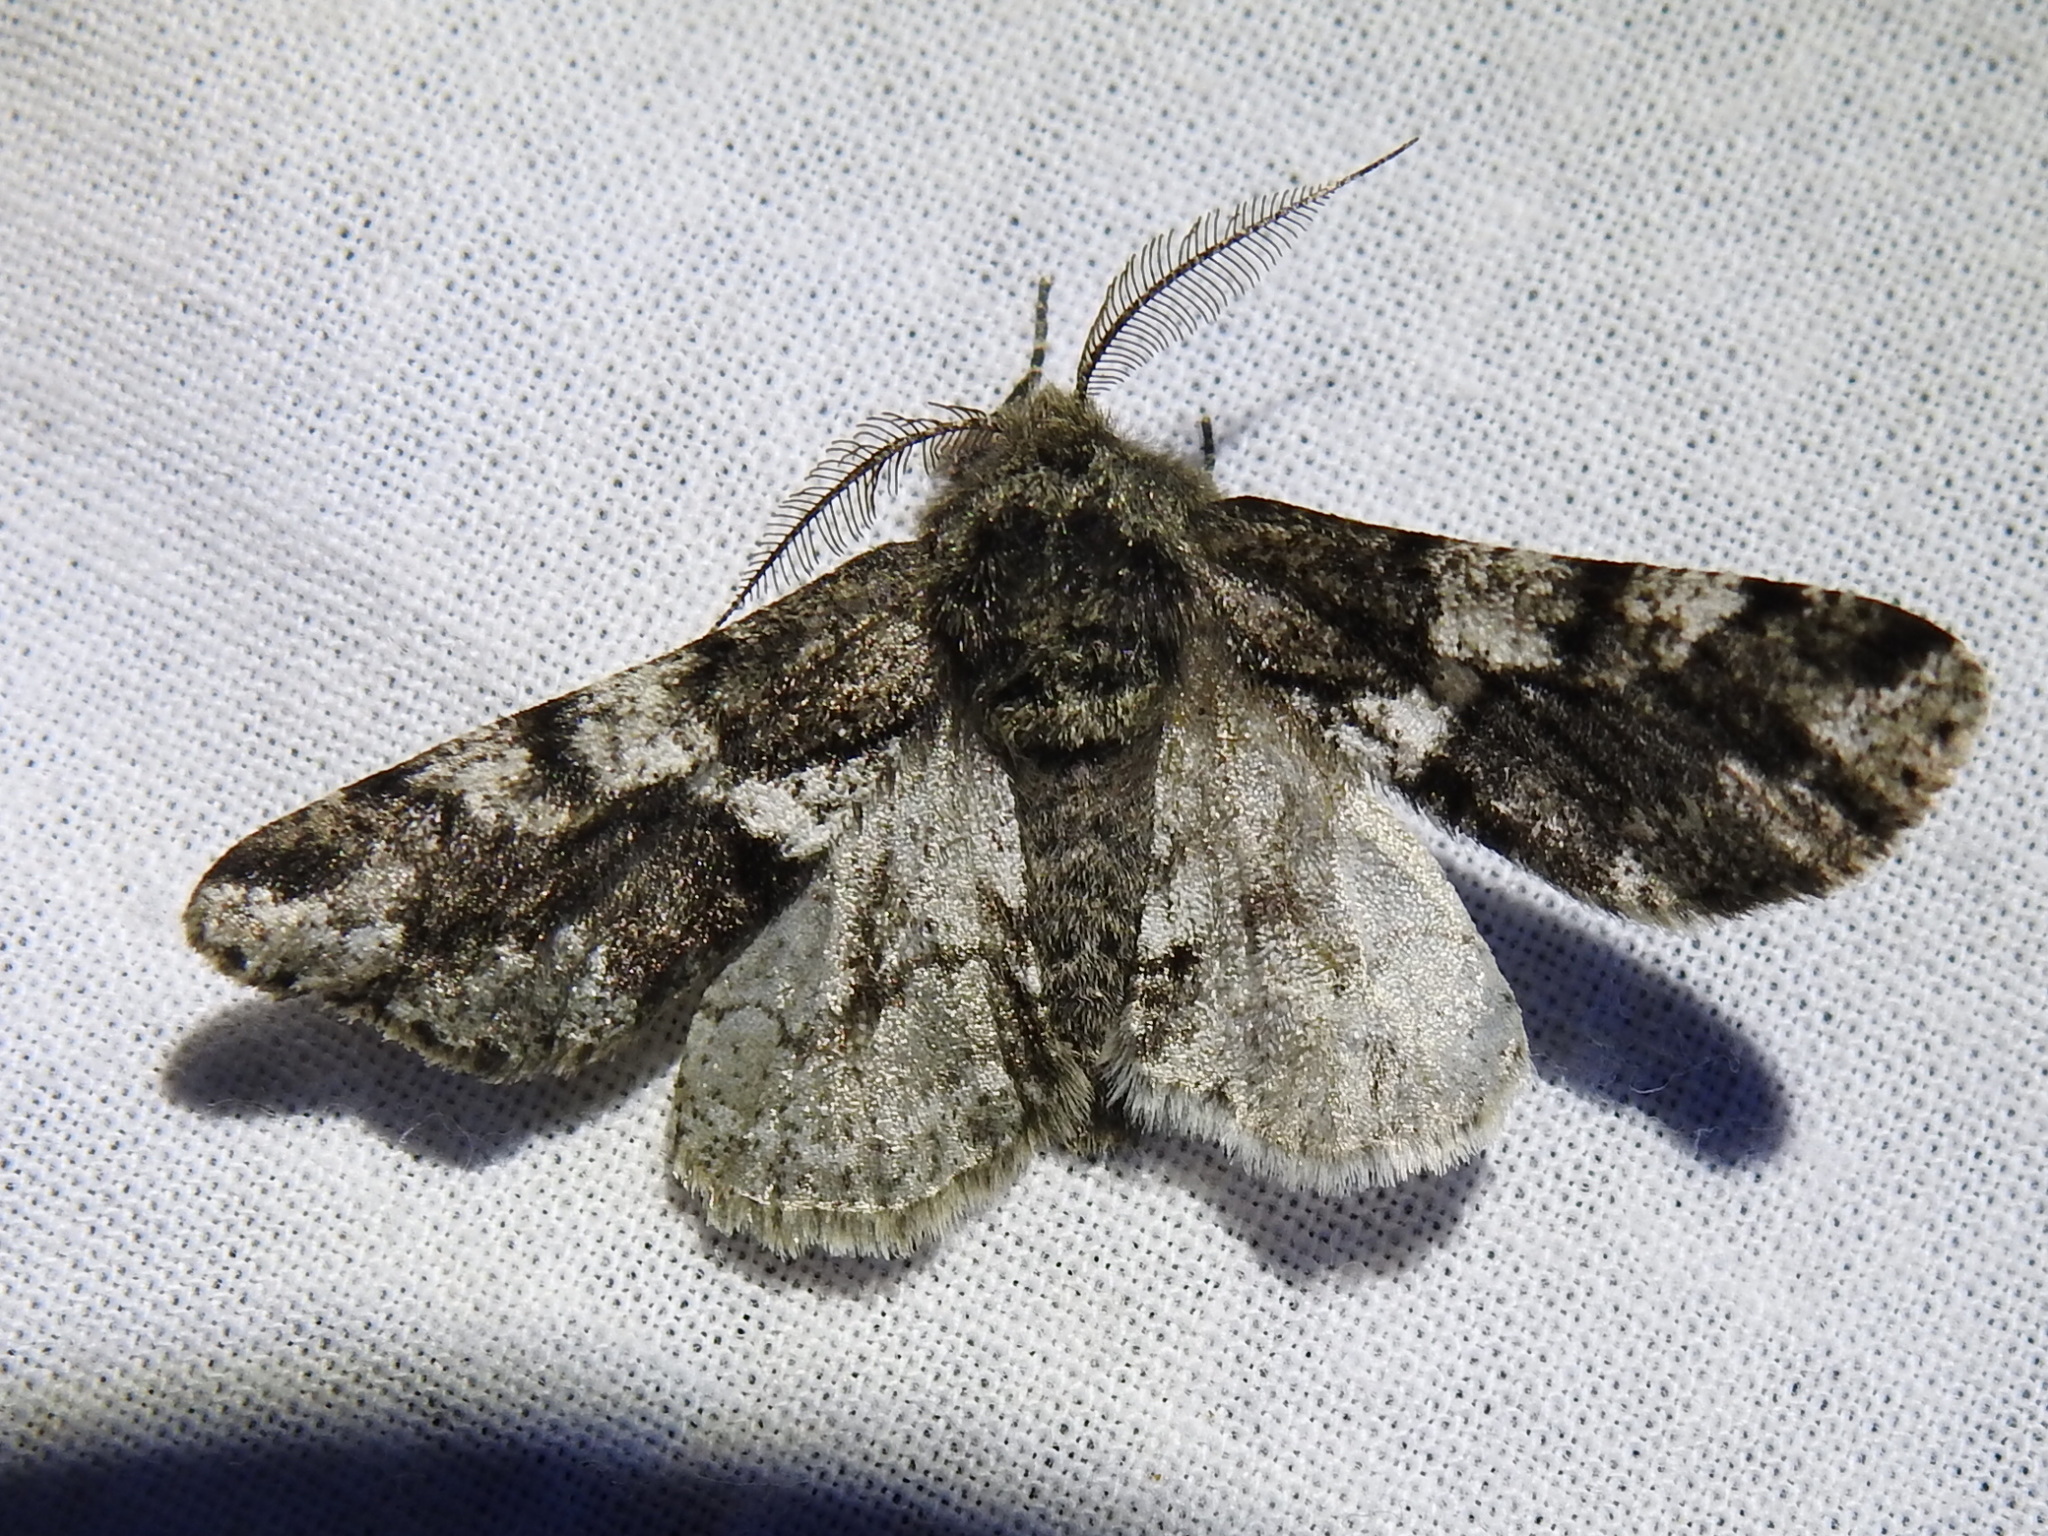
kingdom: Animalia
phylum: Arthropoda
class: Insecta
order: Lepidoptera
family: Geometridae
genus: Lycia
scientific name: Lycia ypsilon
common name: Wooly gray
